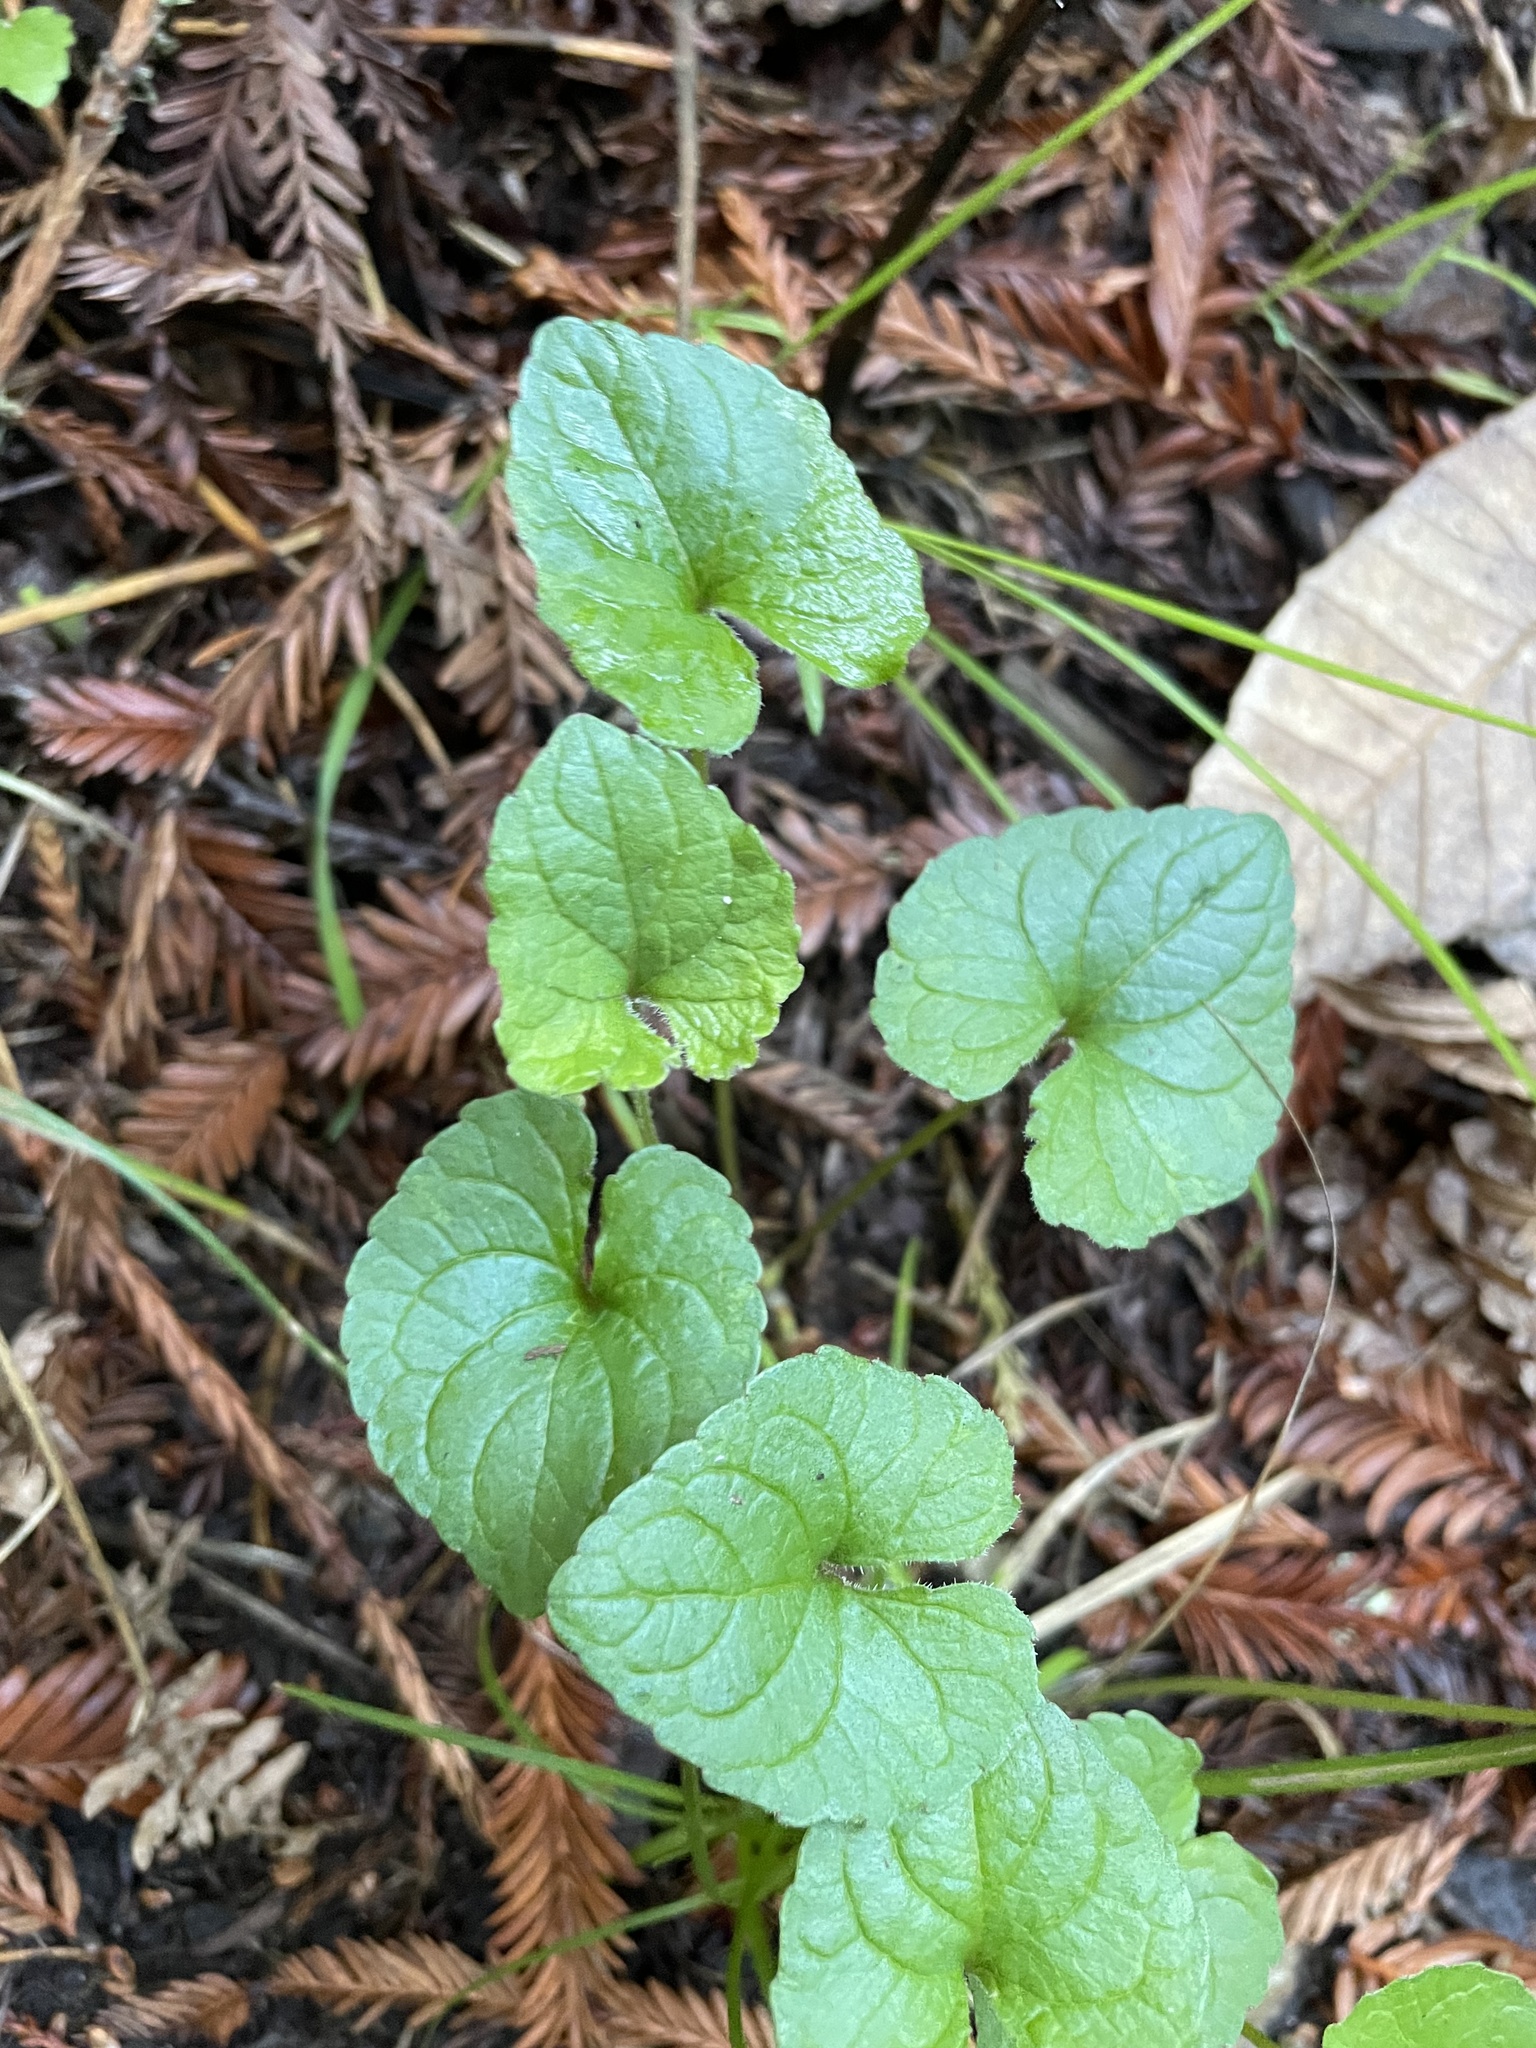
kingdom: Plantae
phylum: Tracheophyta
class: Magnoliopsida
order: Malpighiales
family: Violaceae
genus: Viola
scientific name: Viola ocellata
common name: Western heart's ease
